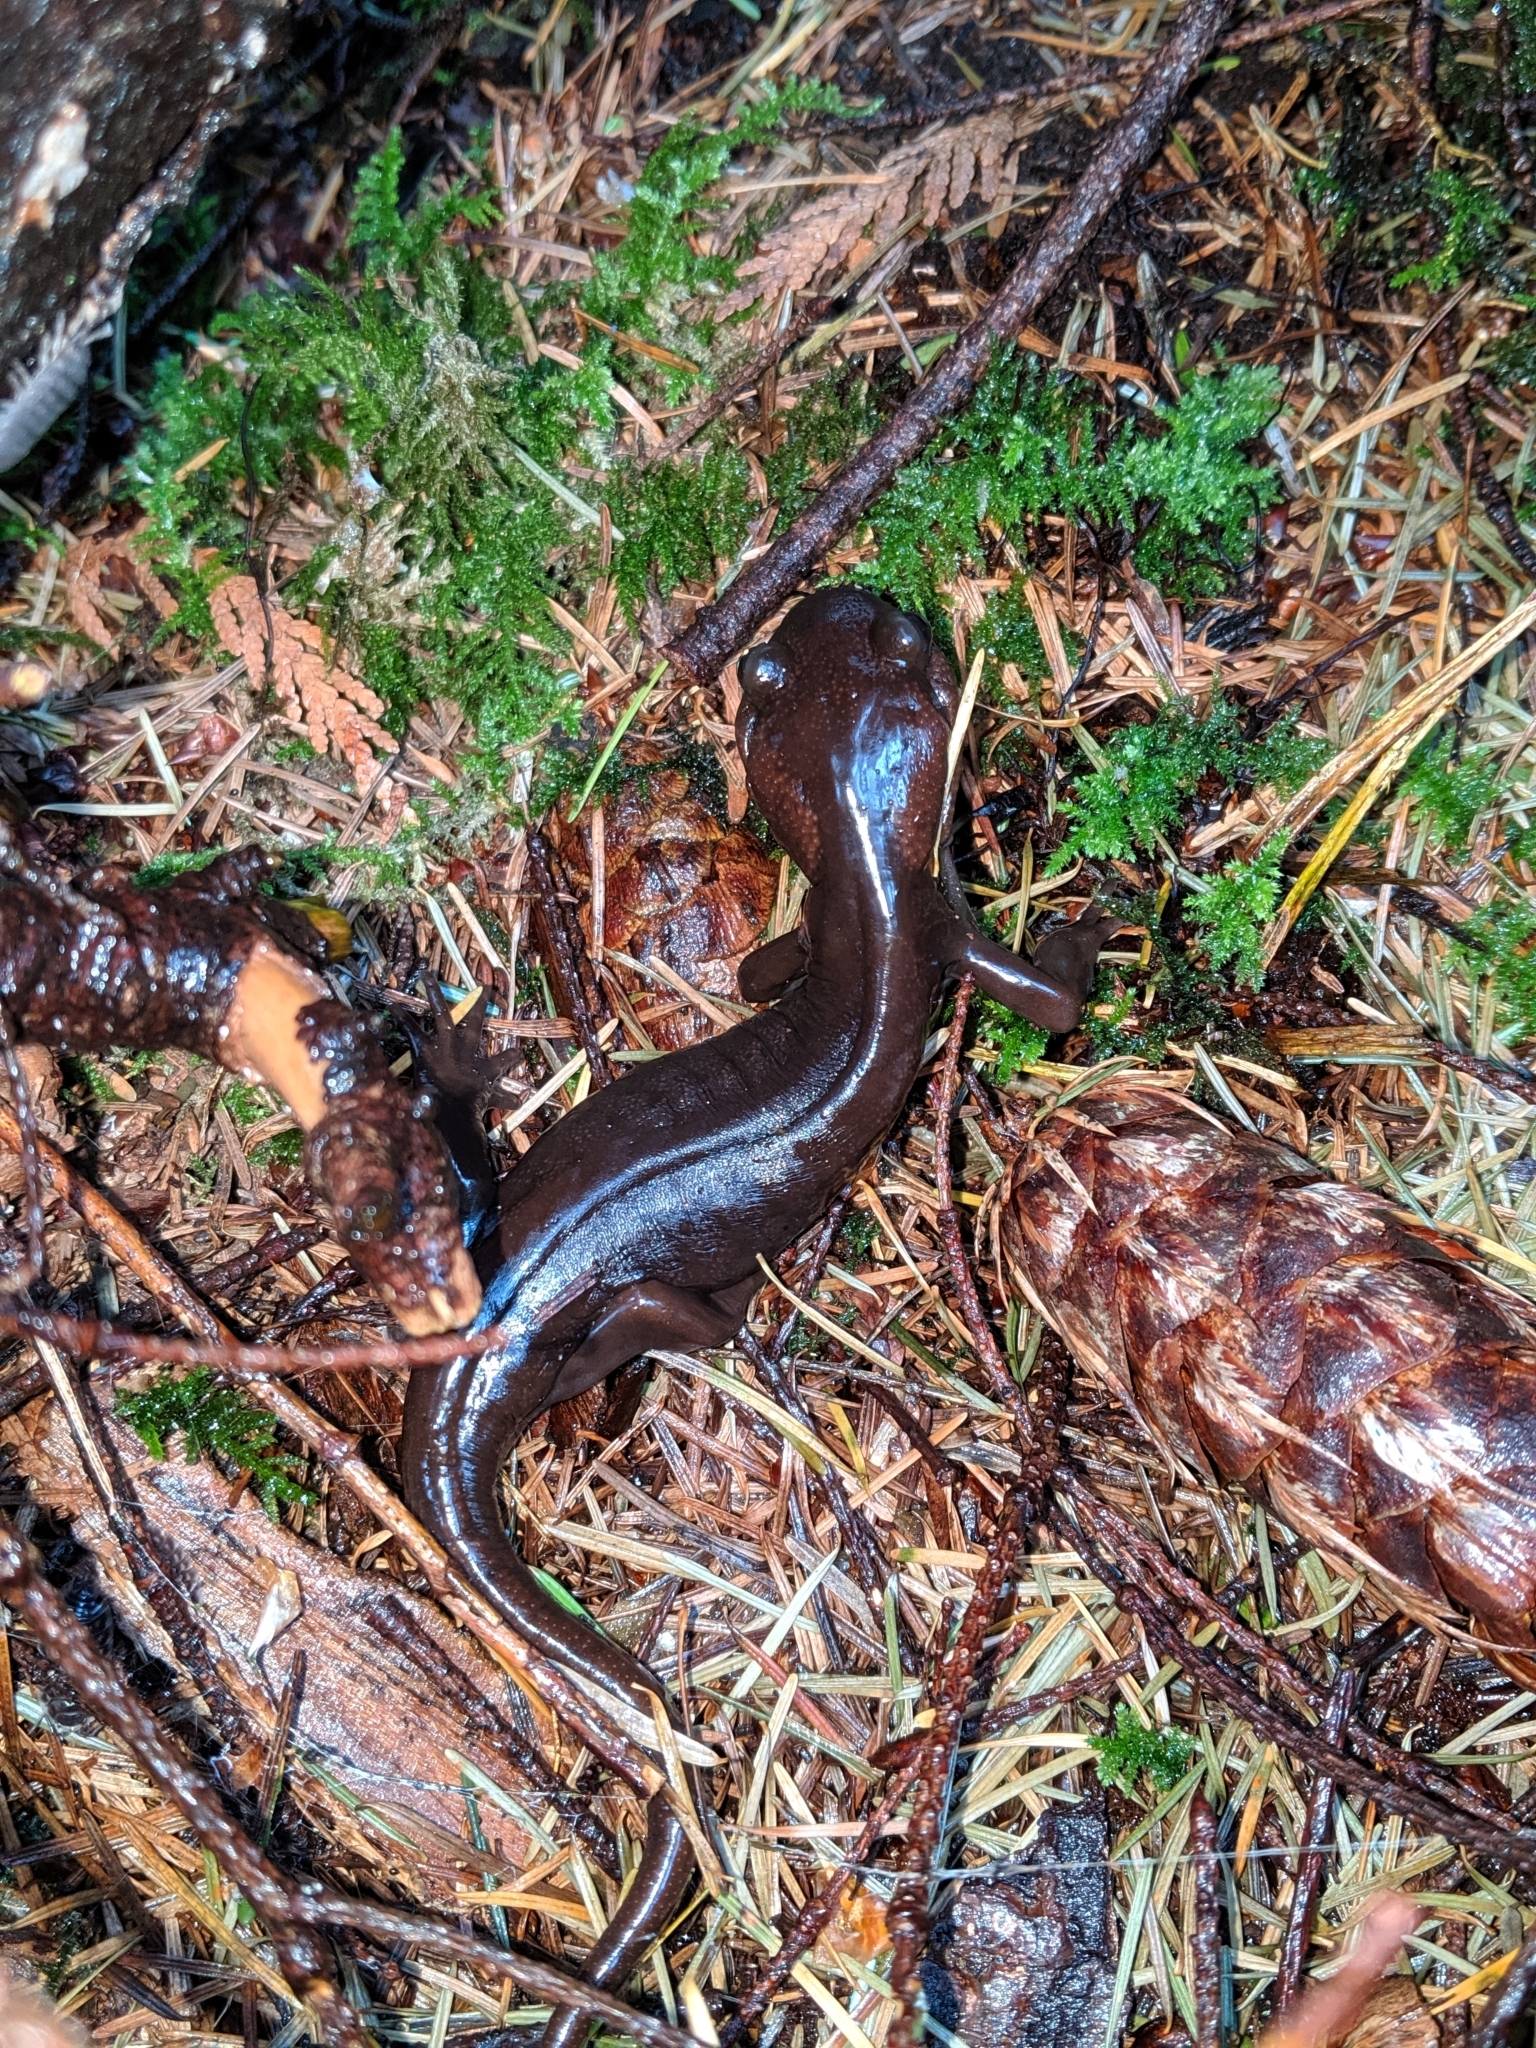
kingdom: Animalia
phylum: Chordata
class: Amphibia
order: Caudata
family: Ambystomatidae
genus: Ambystoma
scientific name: Ambystoma gracile
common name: Northwestern salamander
